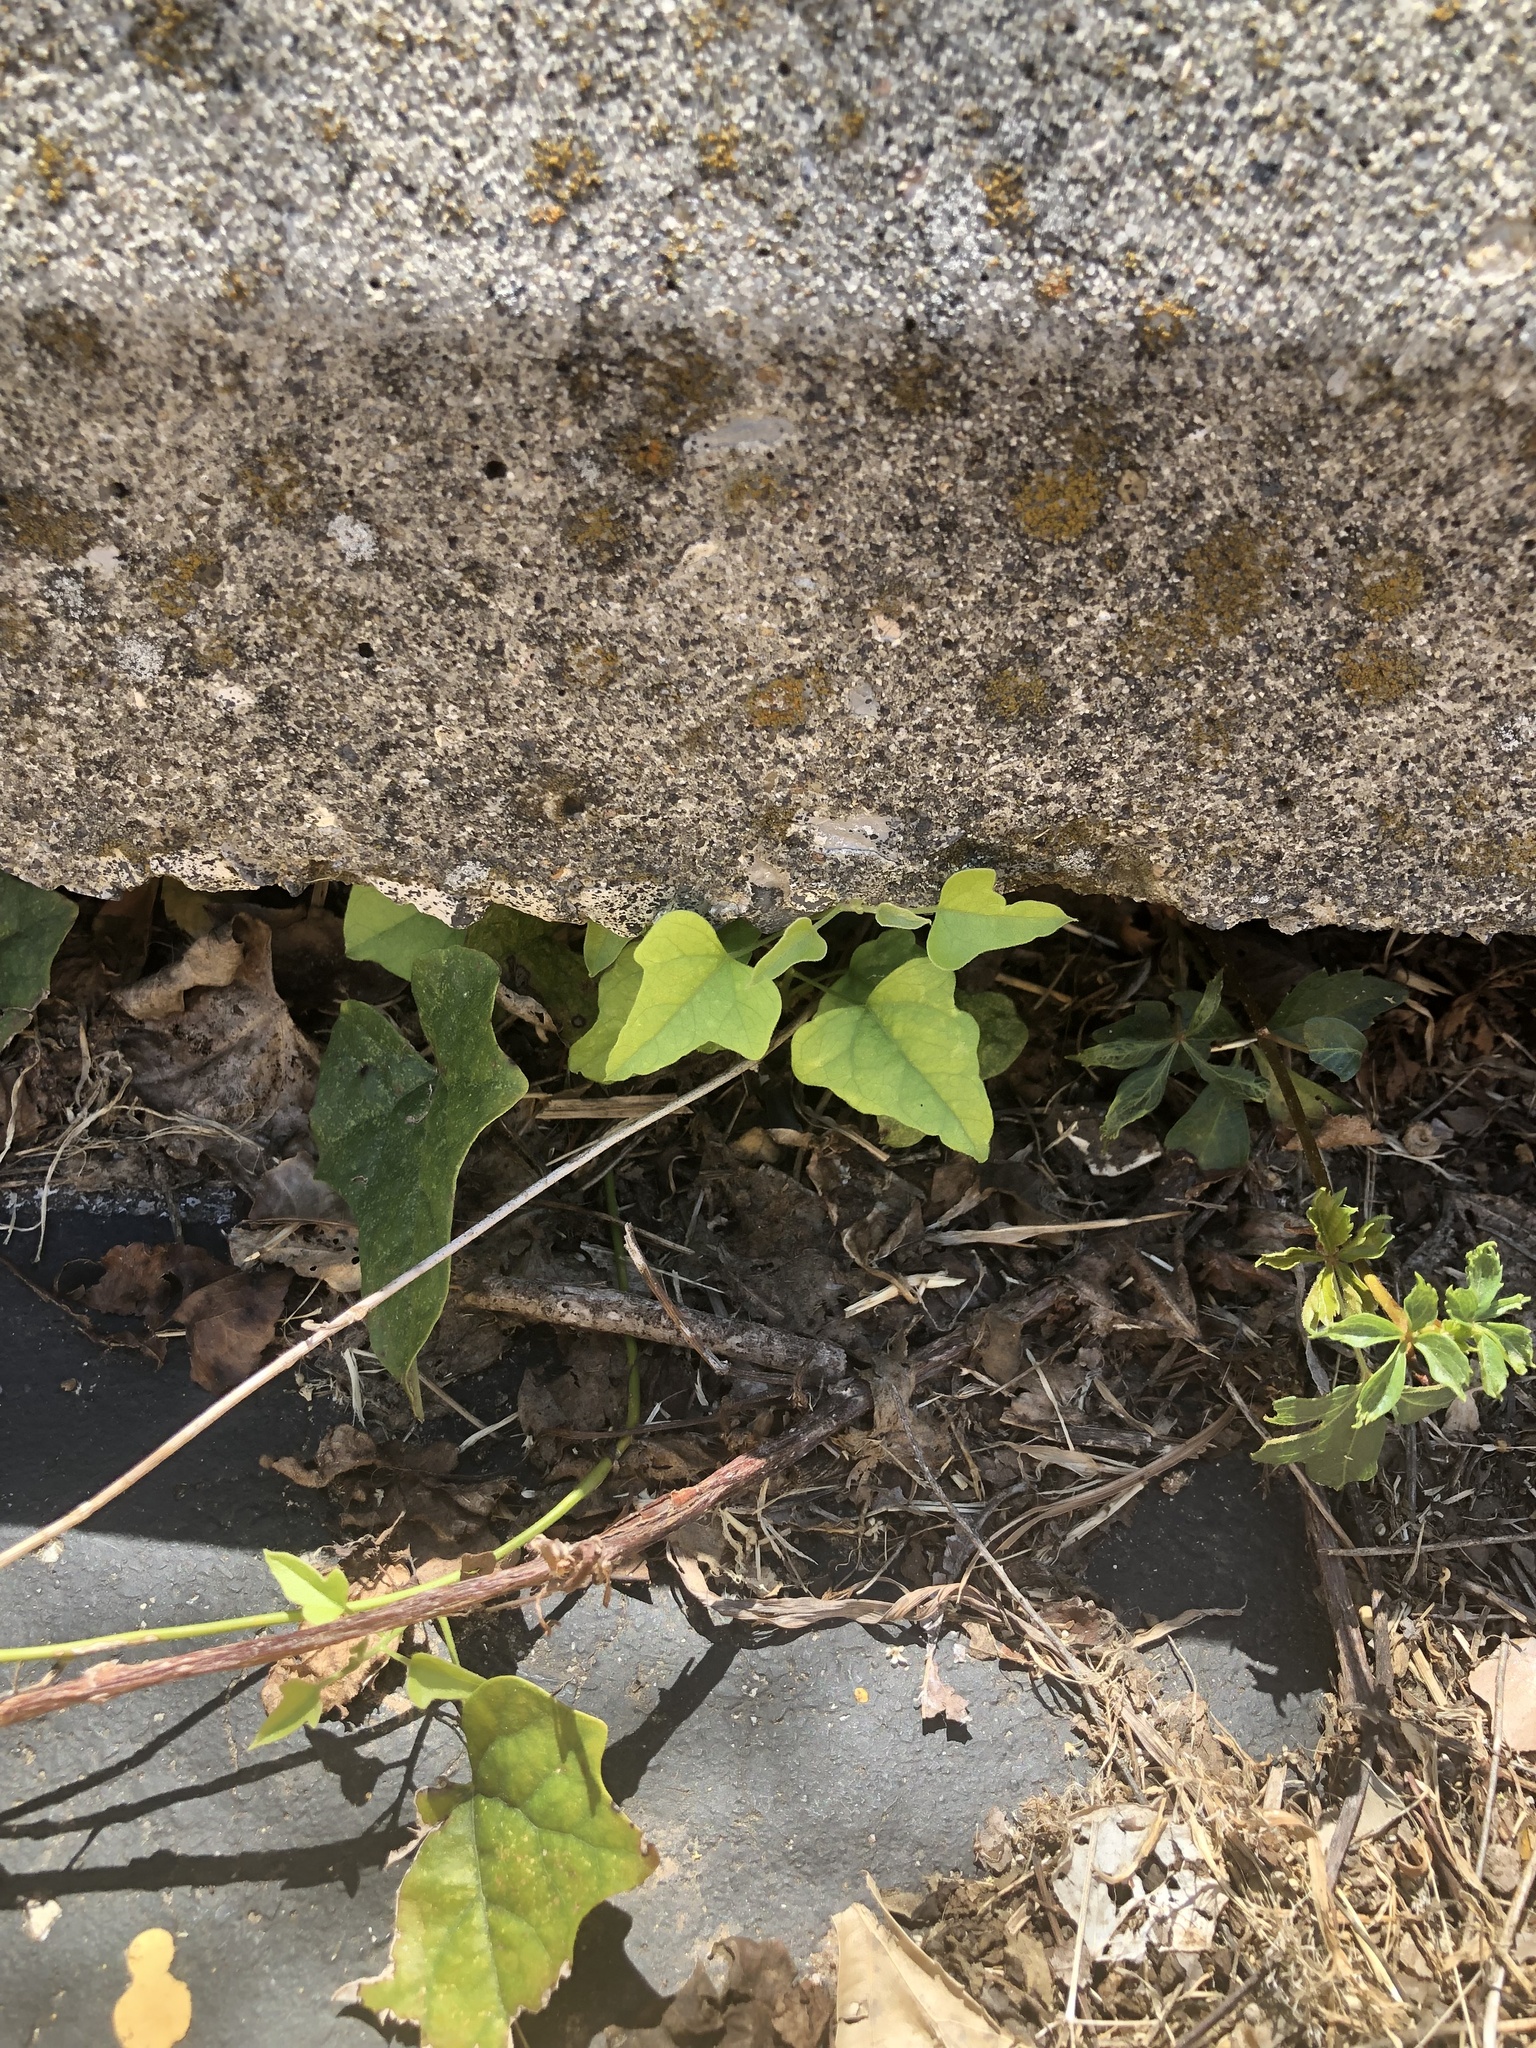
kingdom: Plantae
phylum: Tracheophyta
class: Magnoliopsida
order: Ranunculales
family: Menispermaceae
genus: Cocculus
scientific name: Cocculus carolinus
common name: Carolina moonseed
